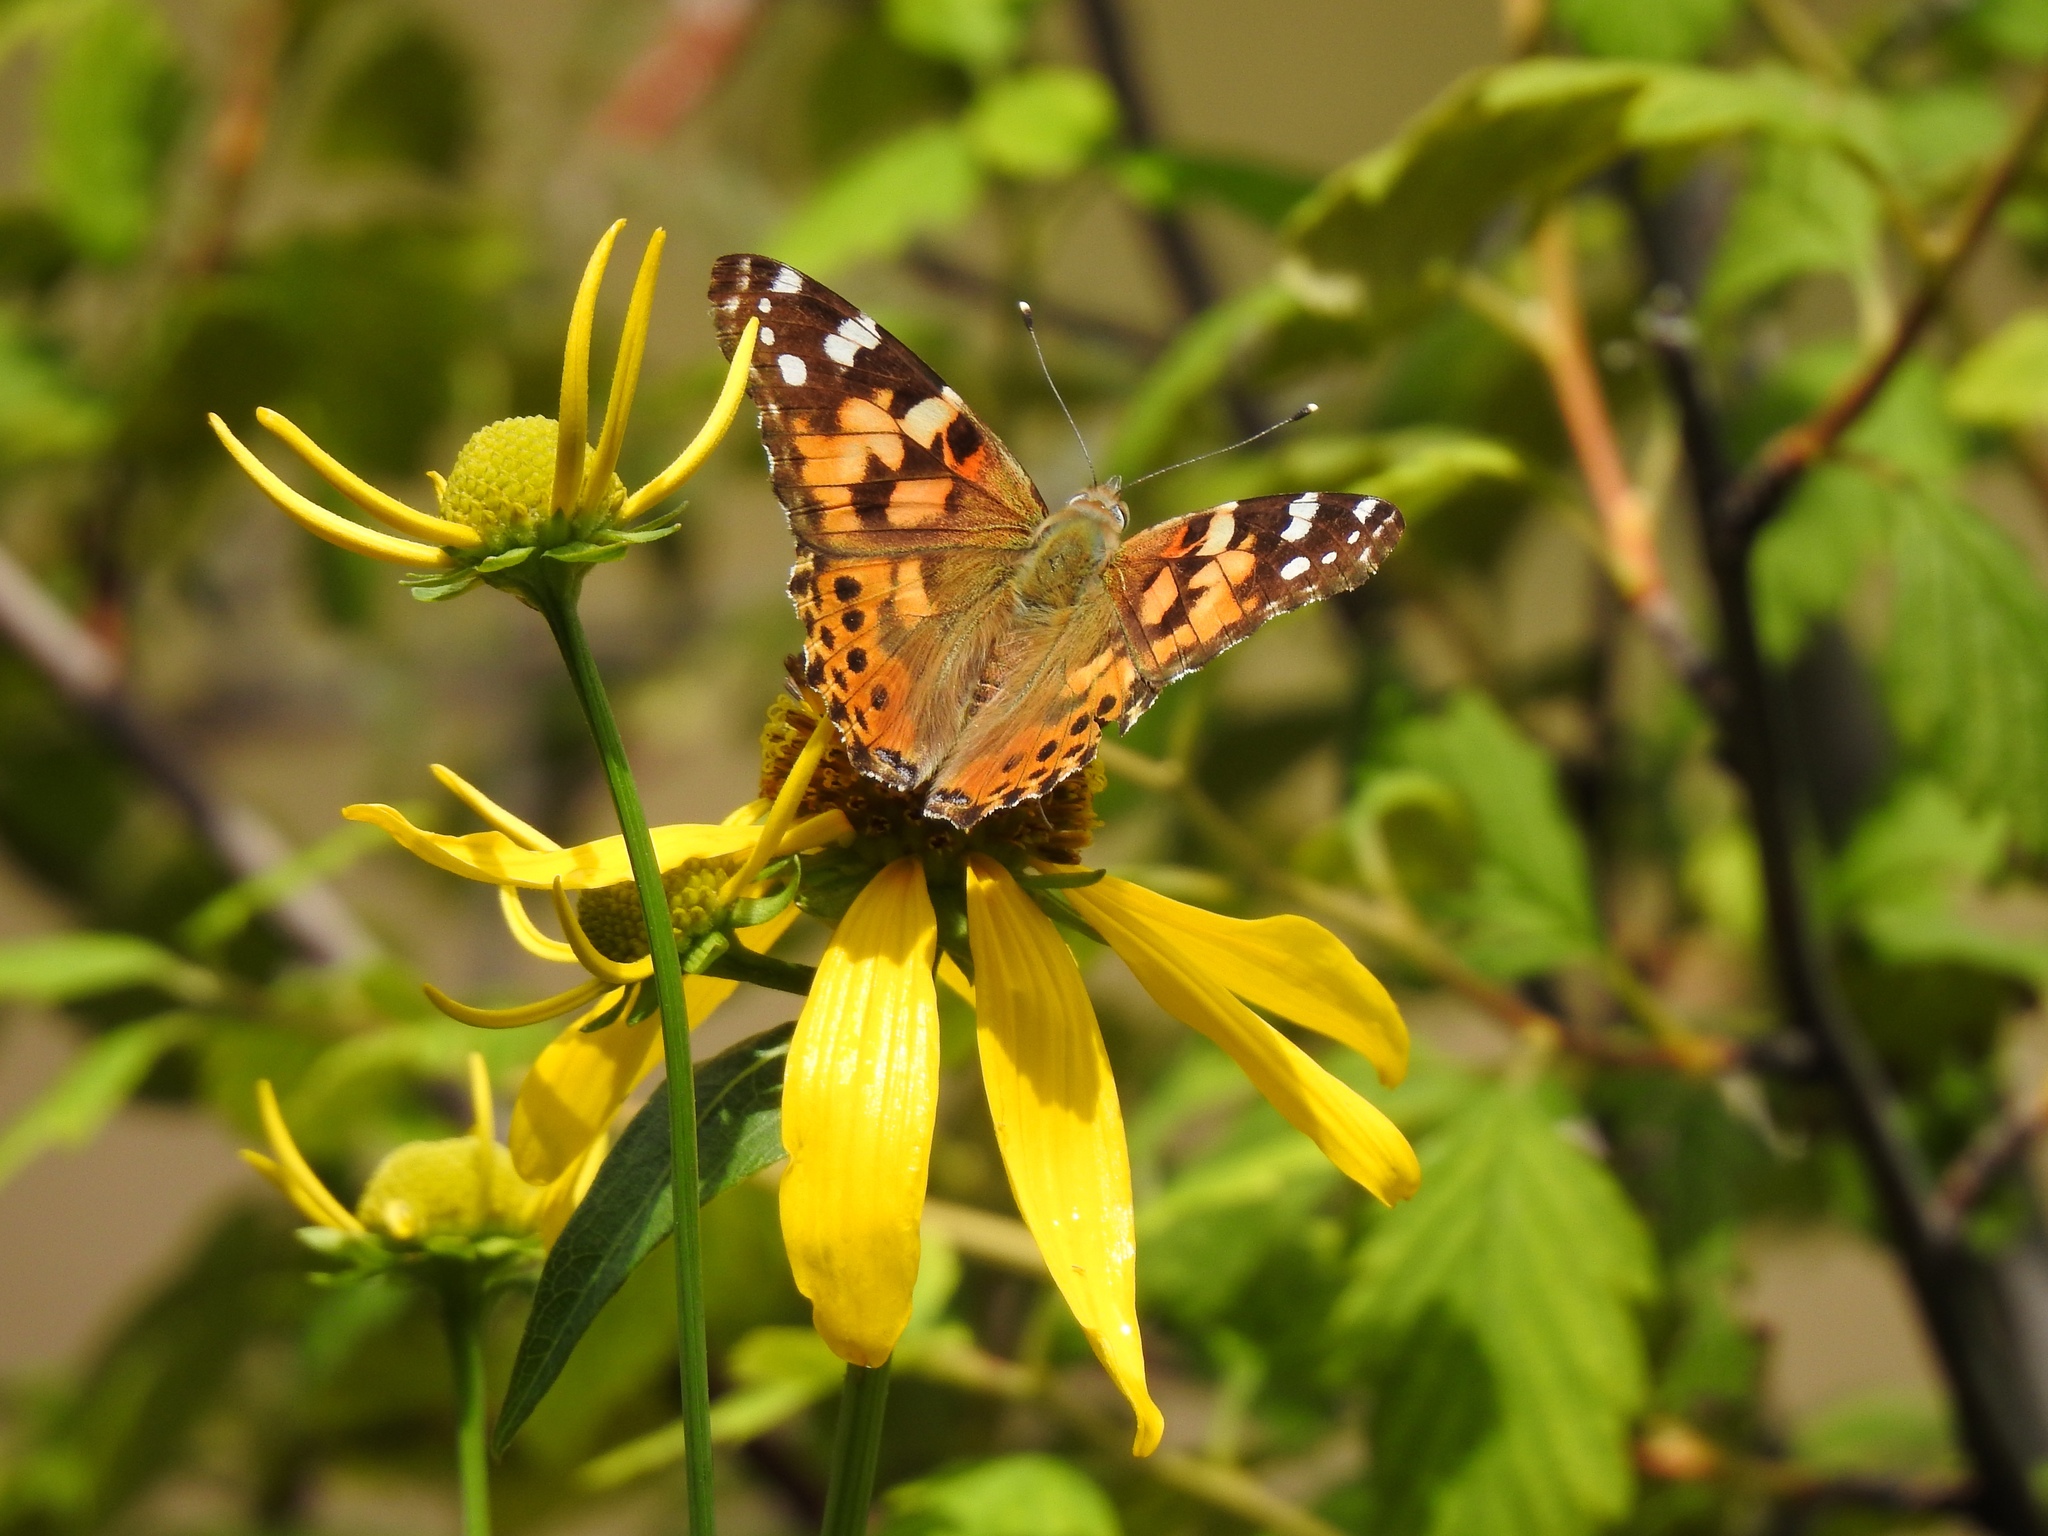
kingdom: Animalia
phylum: Arthropoda
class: Insecta
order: Lepidoptera
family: Nymphalidae
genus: Vanessa
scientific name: Vanessa cardui
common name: Painted lady
